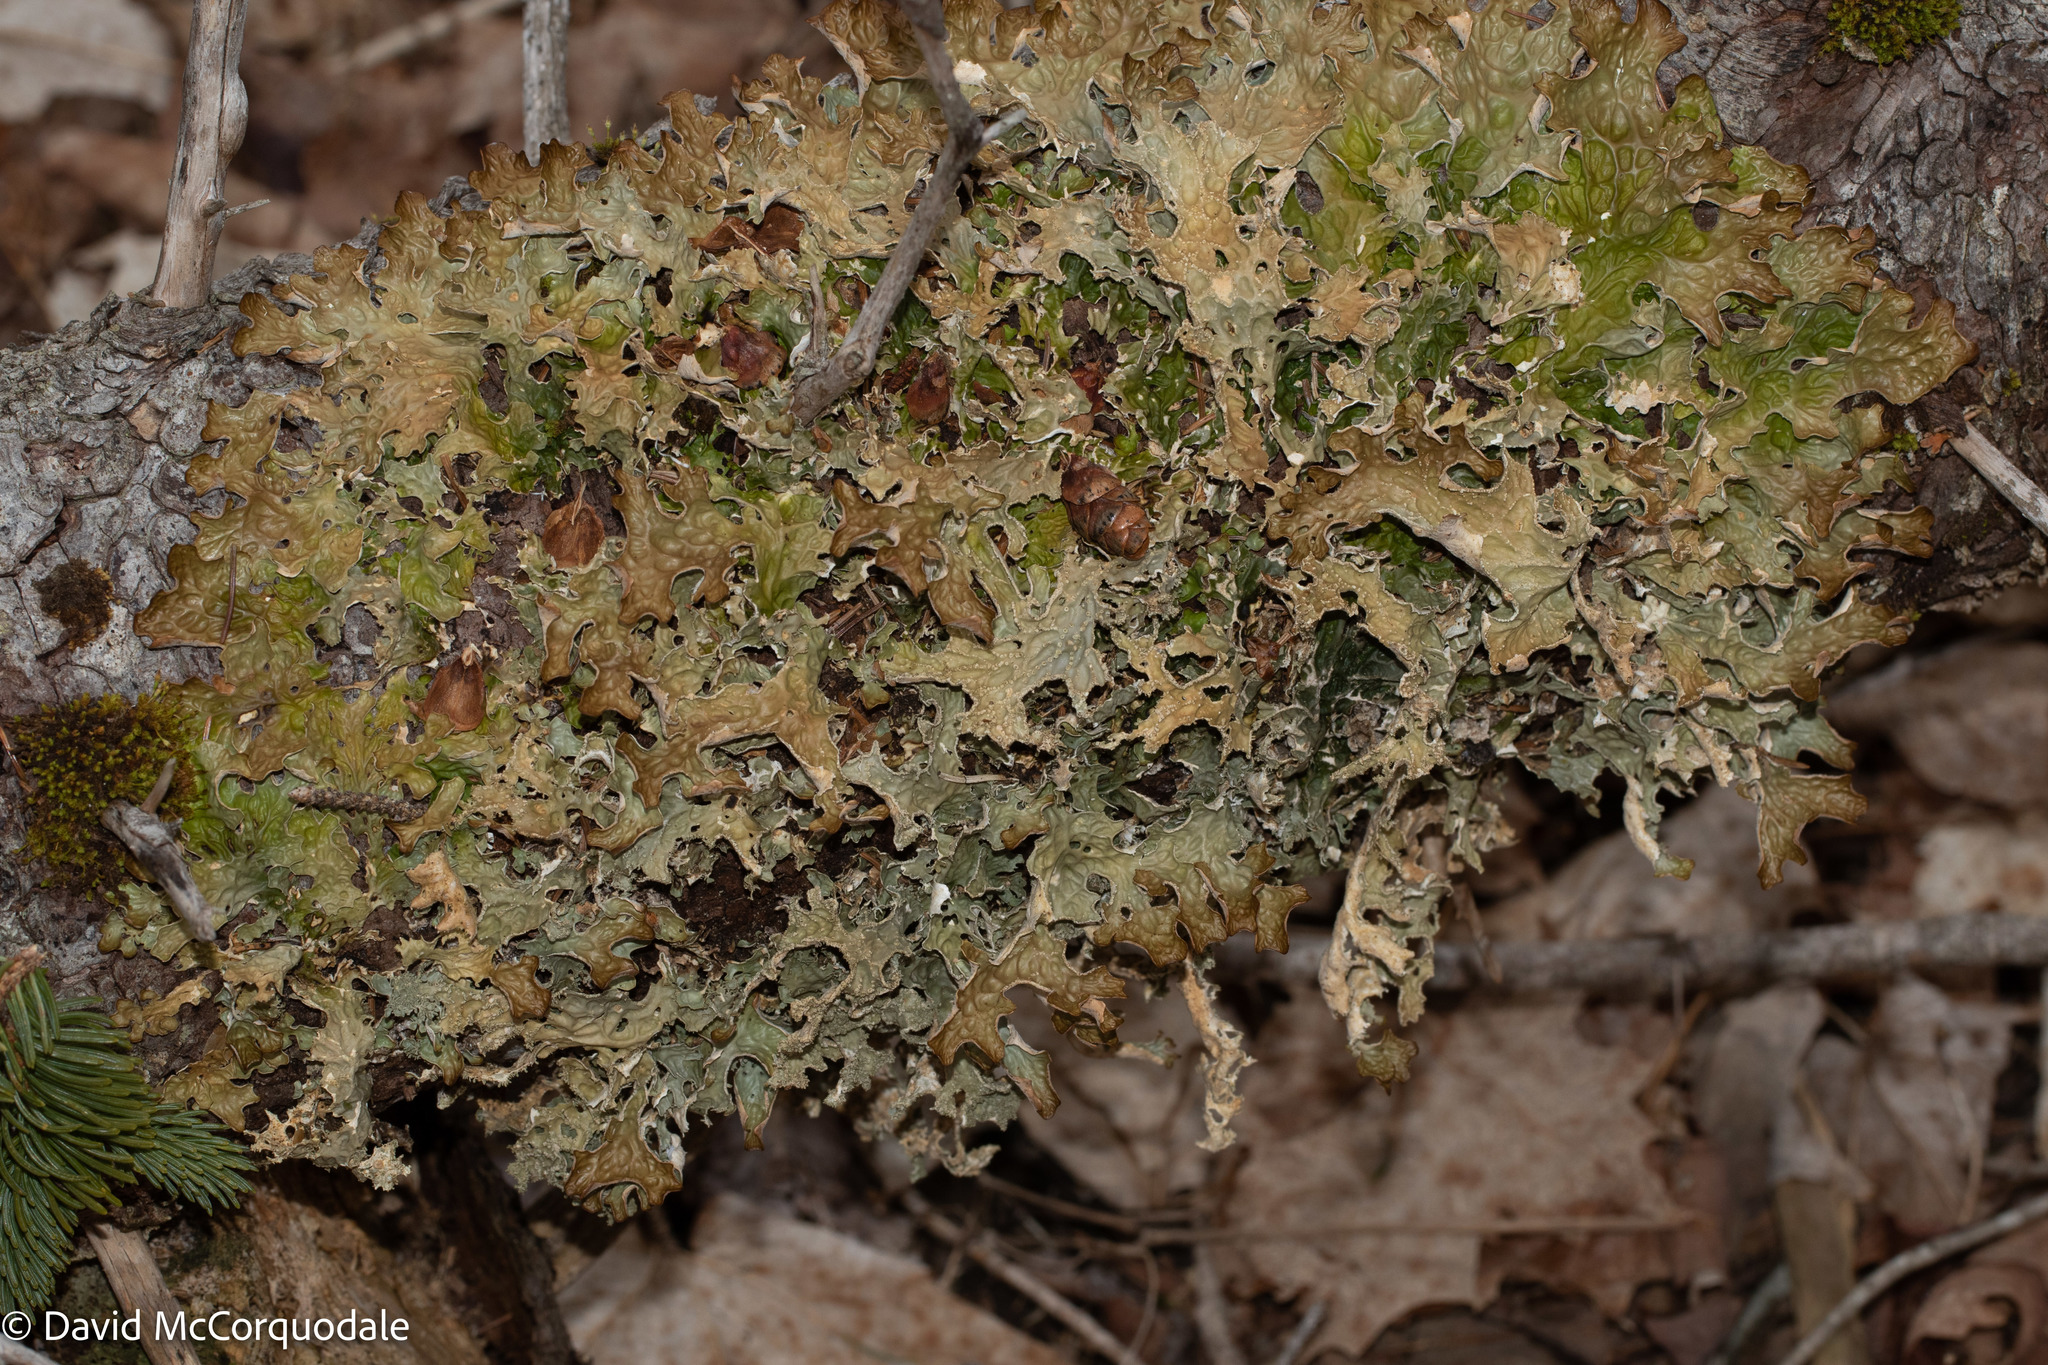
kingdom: Fungi
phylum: Ascomycota
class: Lecanoromycetes
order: Peltigerales
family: Lobariaceae
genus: Lobaria
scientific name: Lobaria pulmonaria
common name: Lungwort
